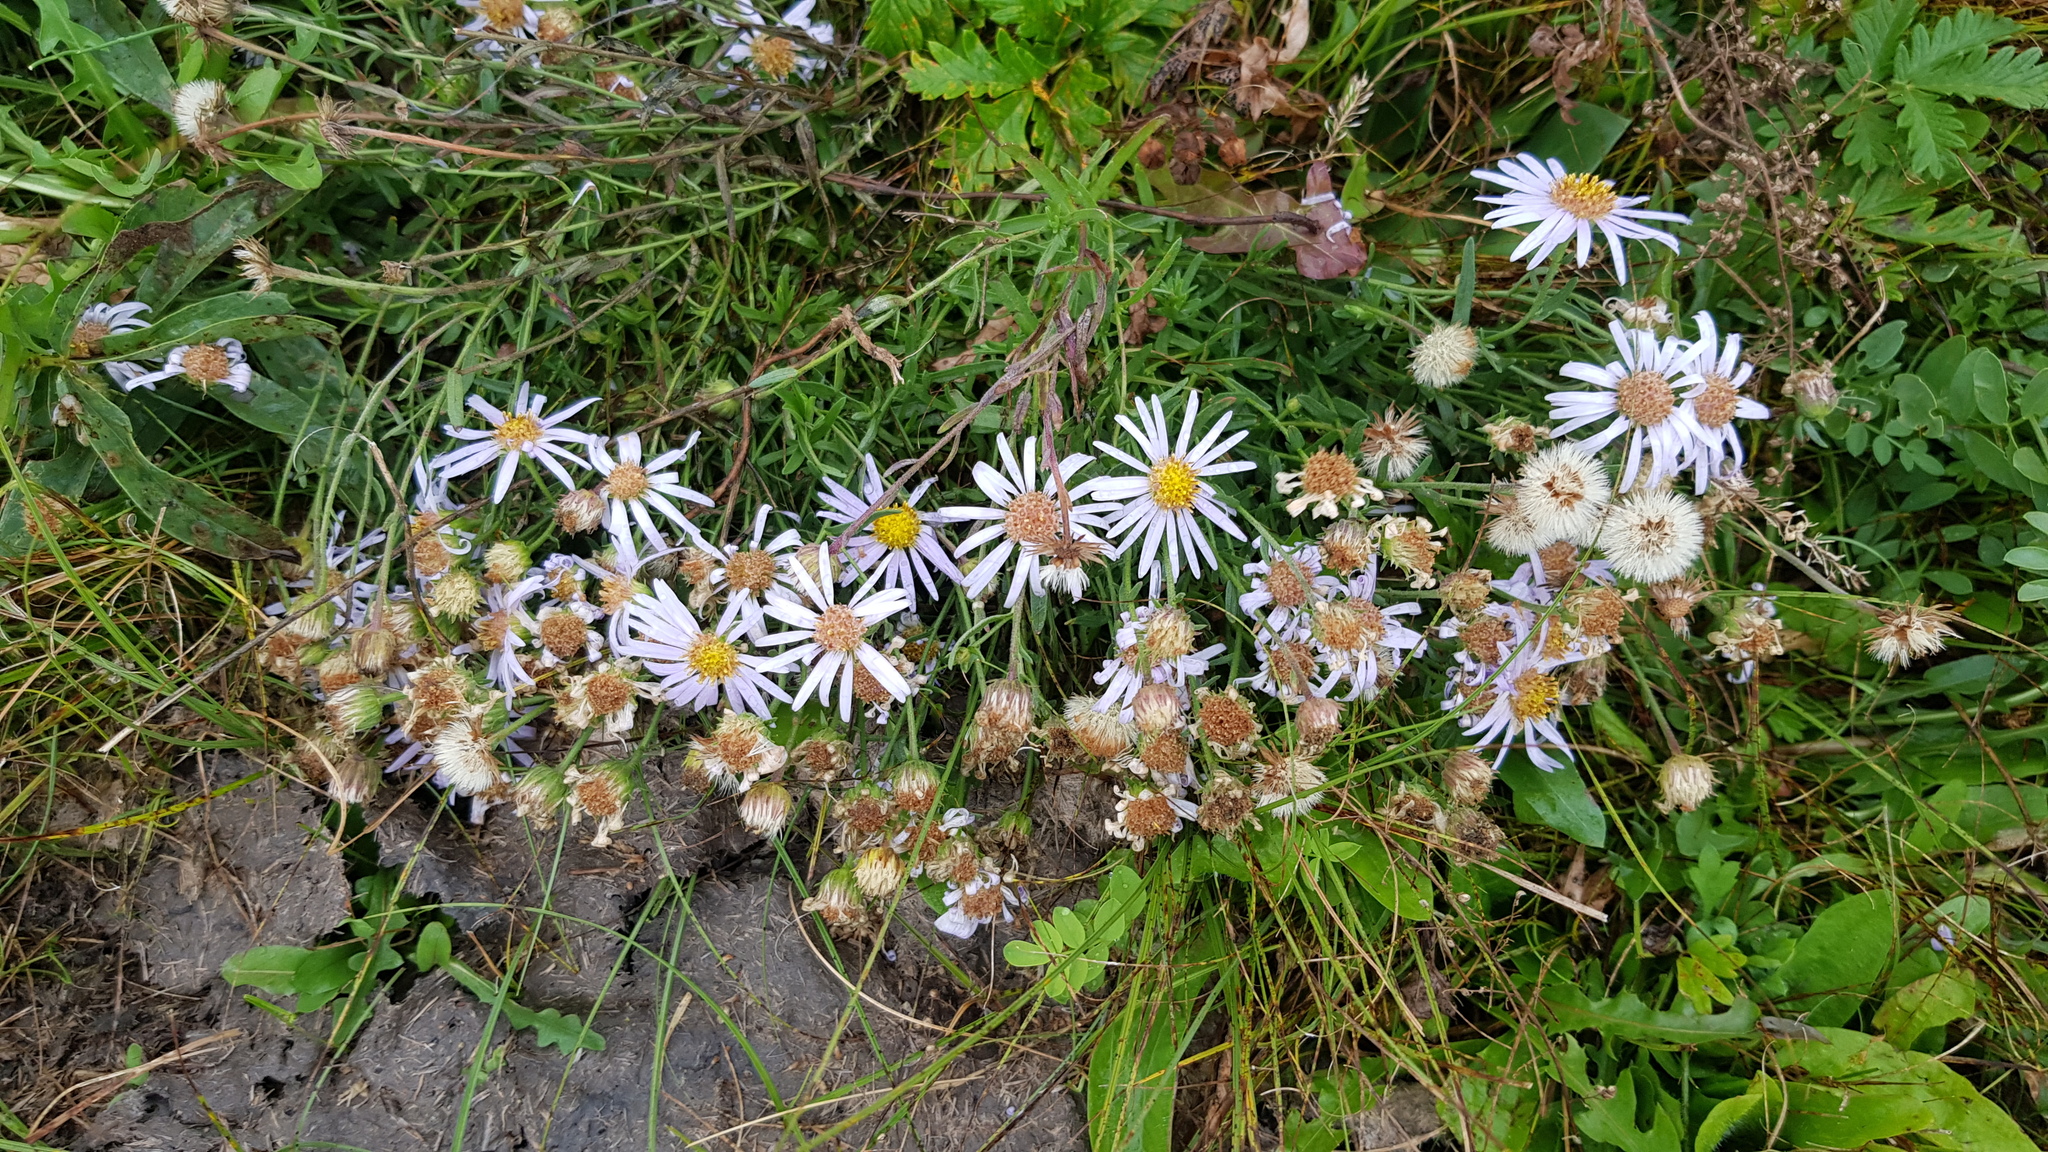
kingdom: Plantae
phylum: Tracheophyta
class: Magnoliopsida
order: Asterales
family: Asteraceae
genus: Heteropappus
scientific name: Heteropappus altaicus
